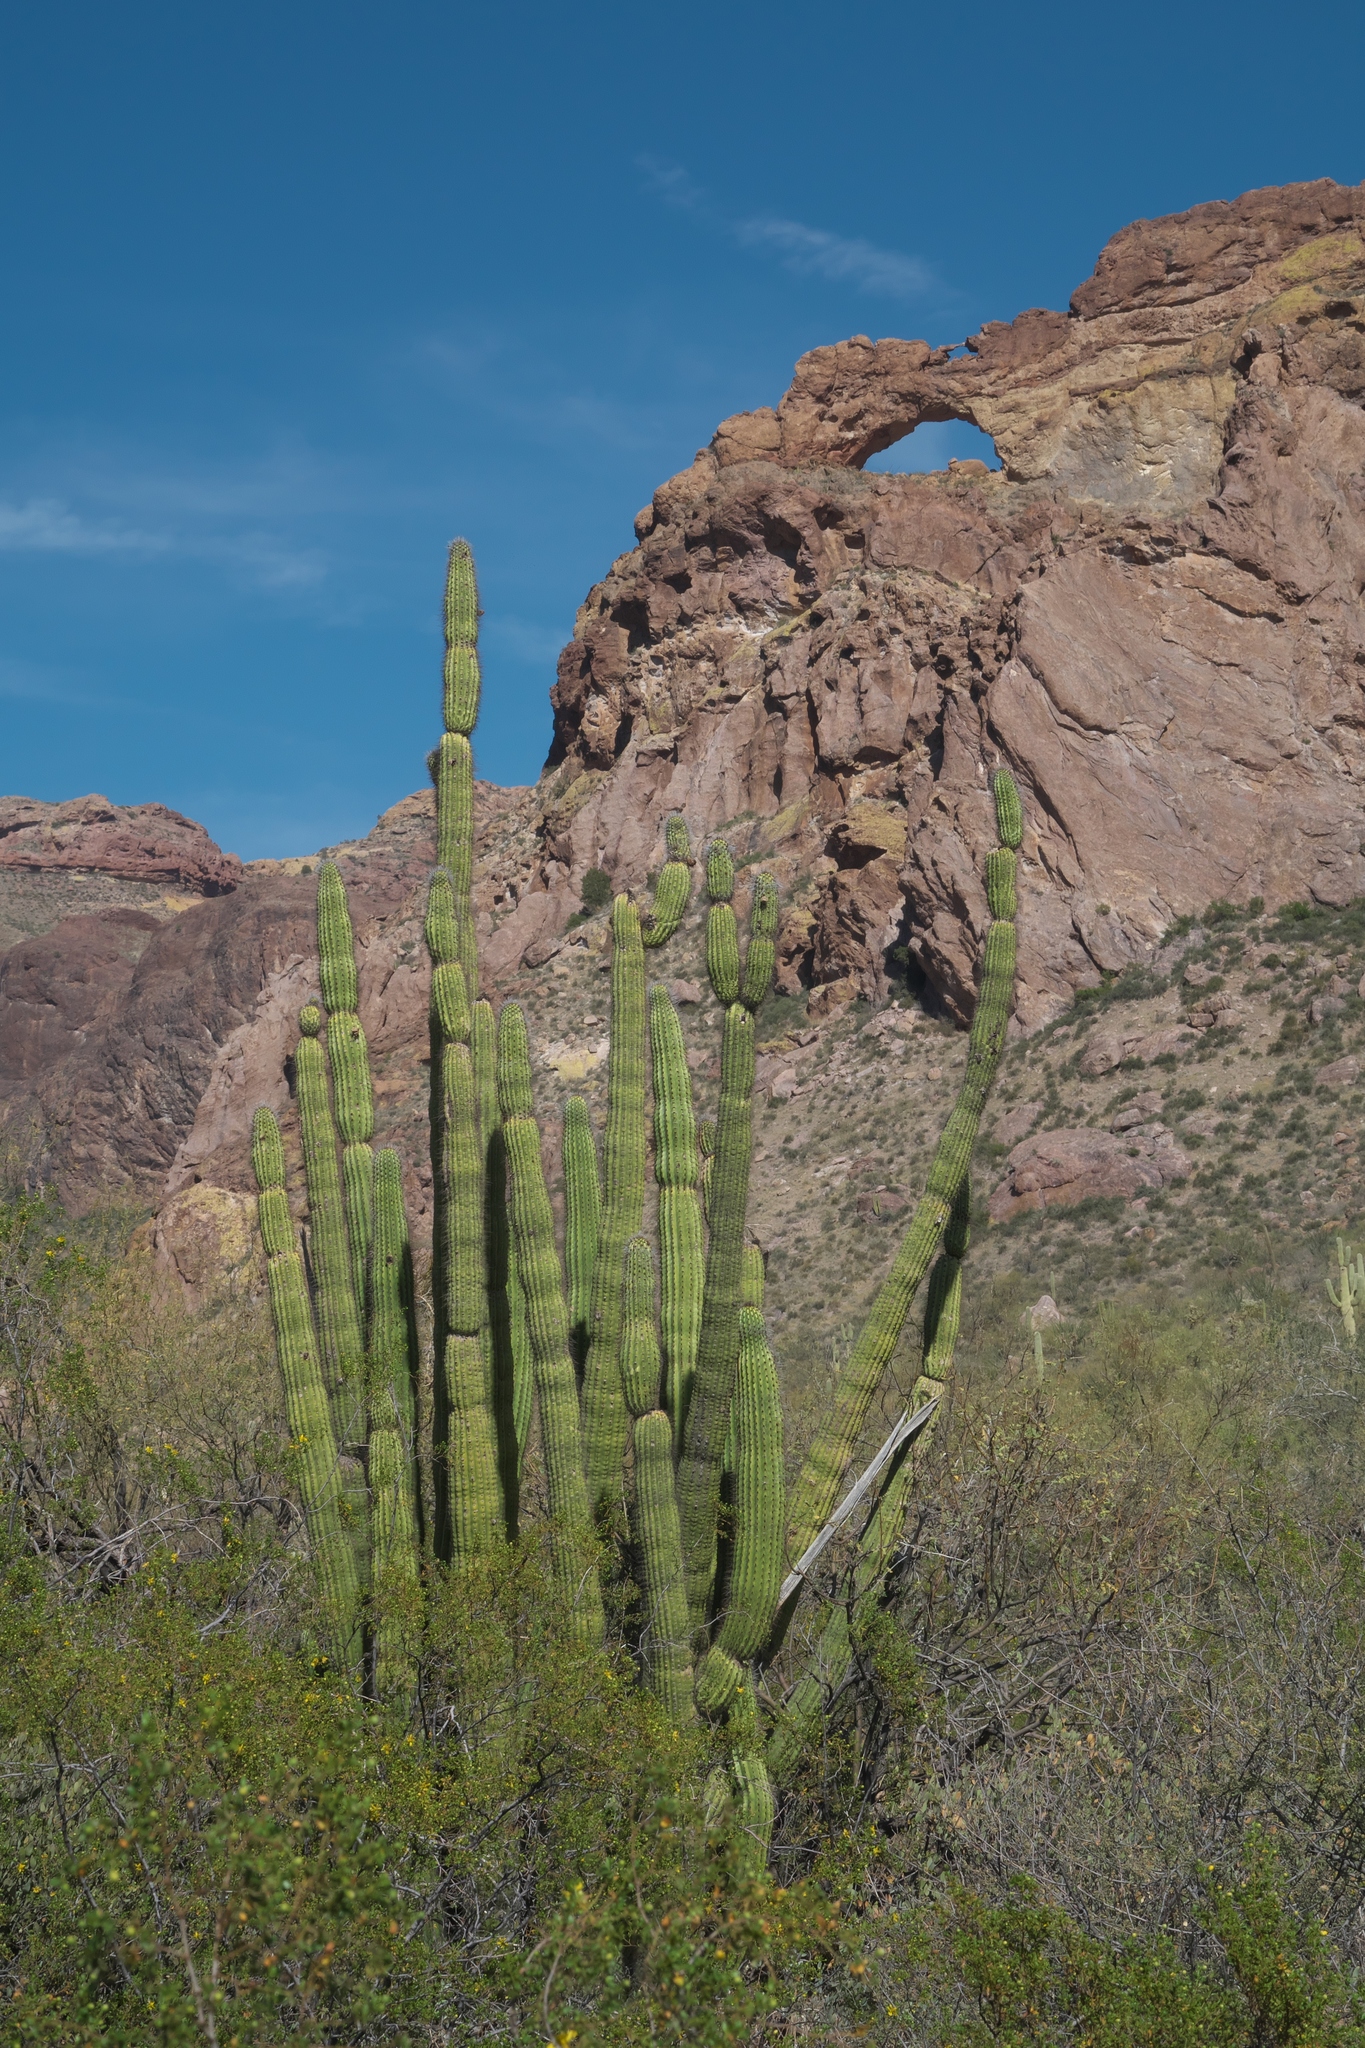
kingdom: Plantae
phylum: Tracheophyta
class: Magnoliopsida
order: Caryophyllales
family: Cactaceae
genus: Stenocereus
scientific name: Stenocereus thurberi
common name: Organ pipe cactus
